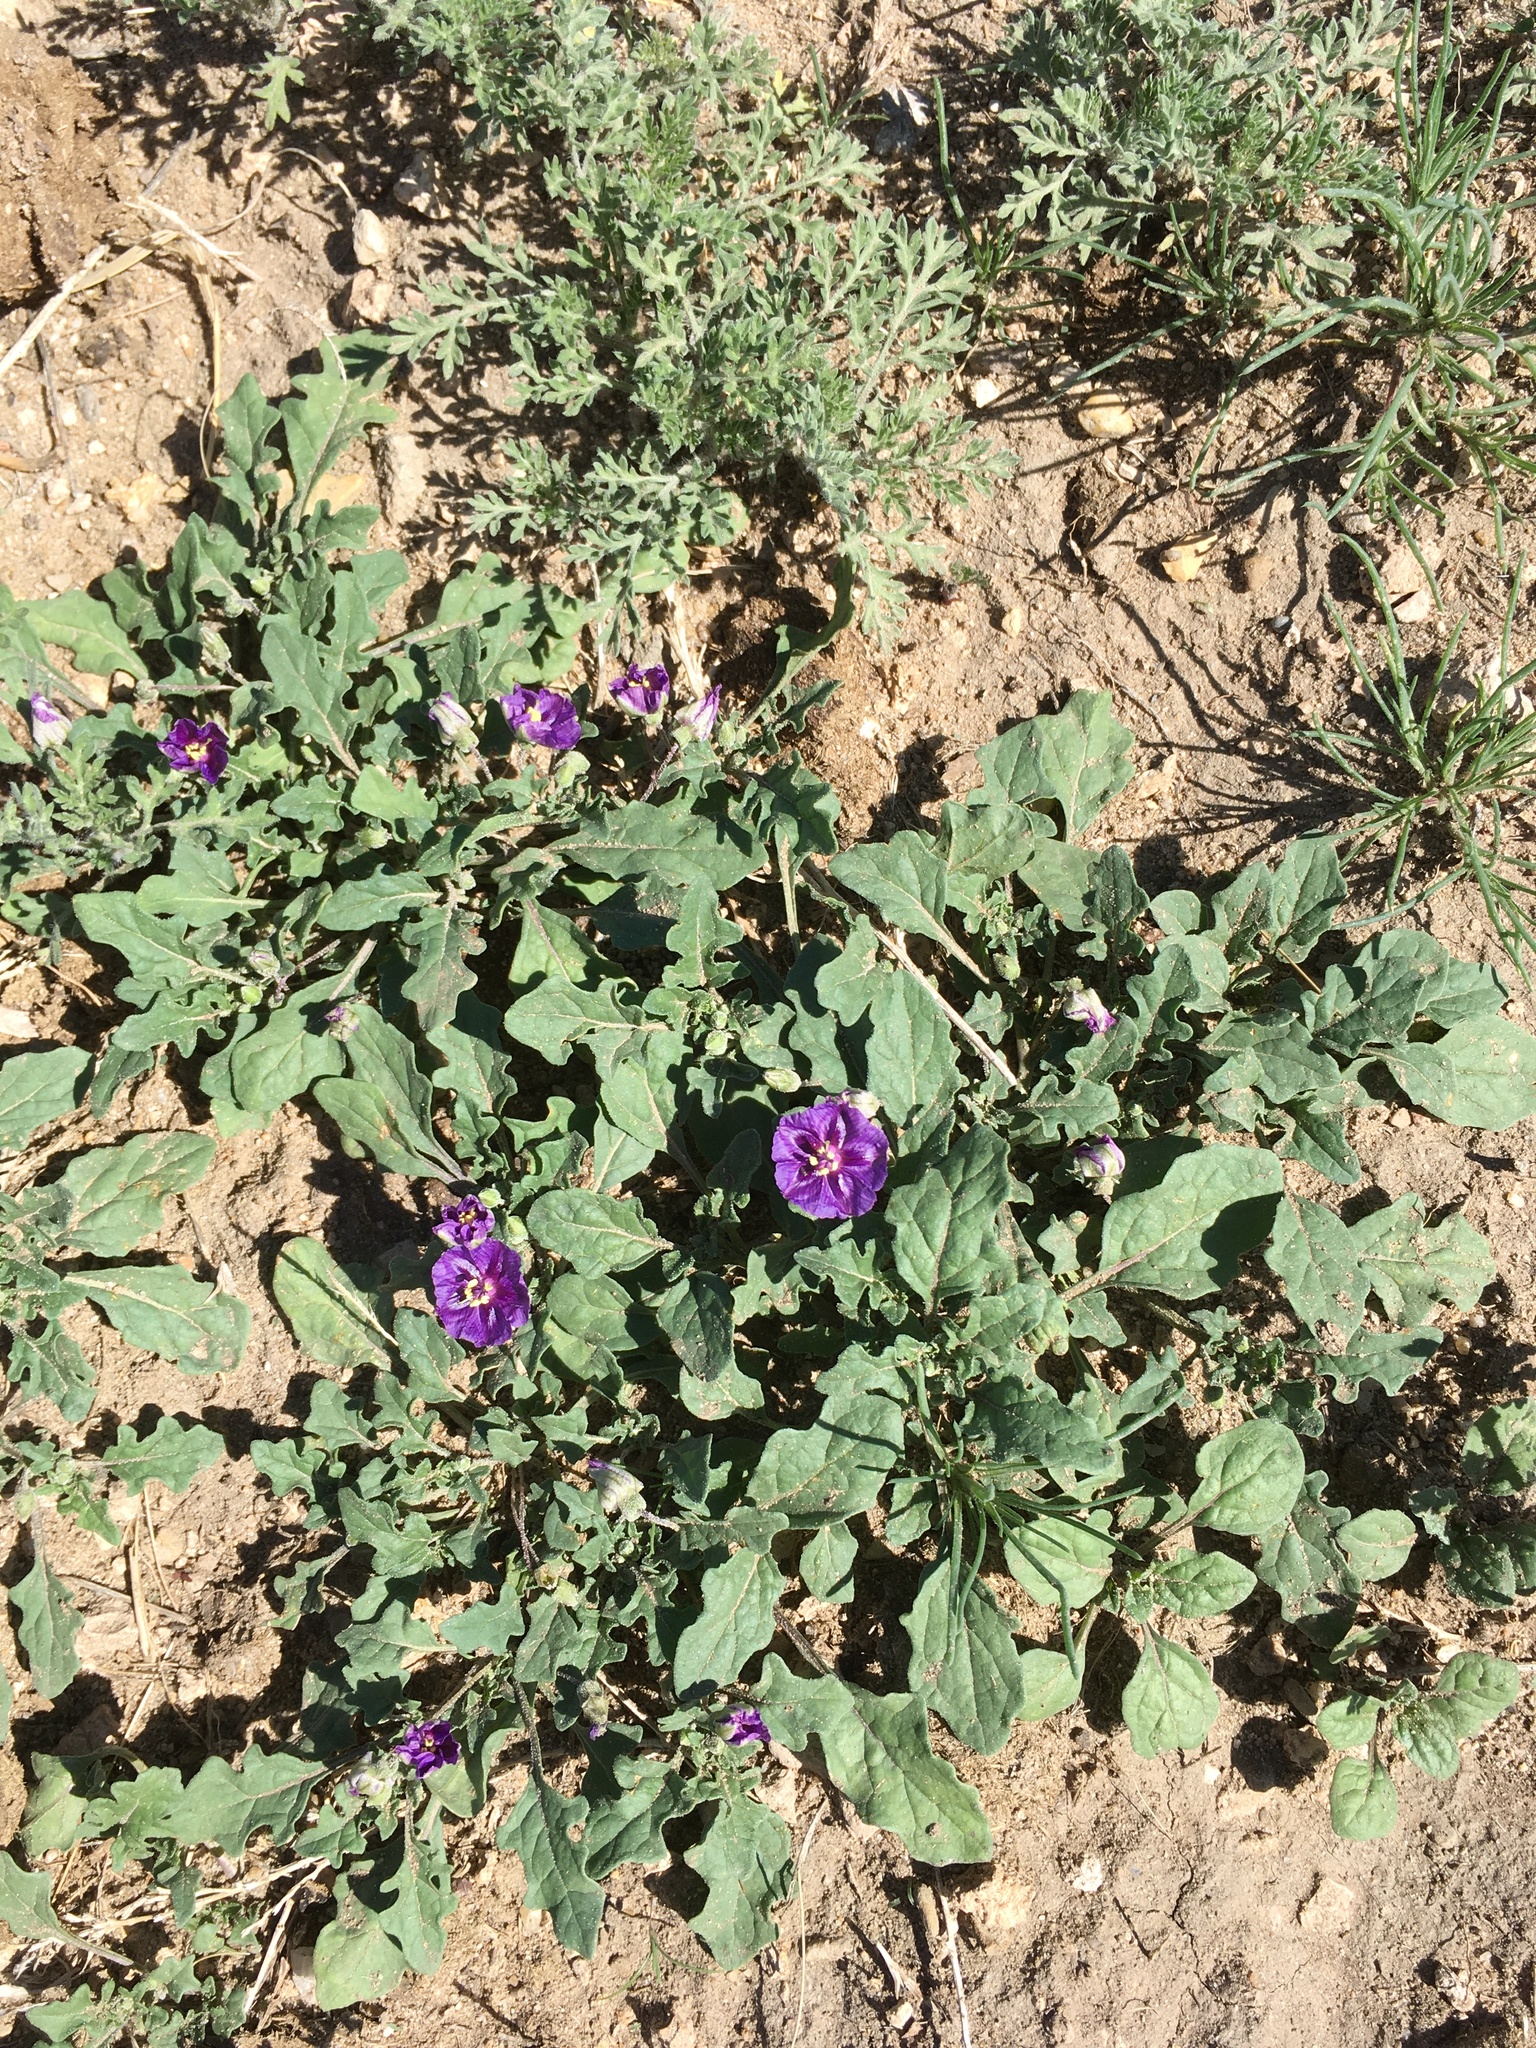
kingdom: Plantae
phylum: Tracheophyta
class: Magnoliopsida
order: Solanales
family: Solanaceae
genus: Quincula
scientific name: Quincula lobata
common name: Purple-ground-cherry
